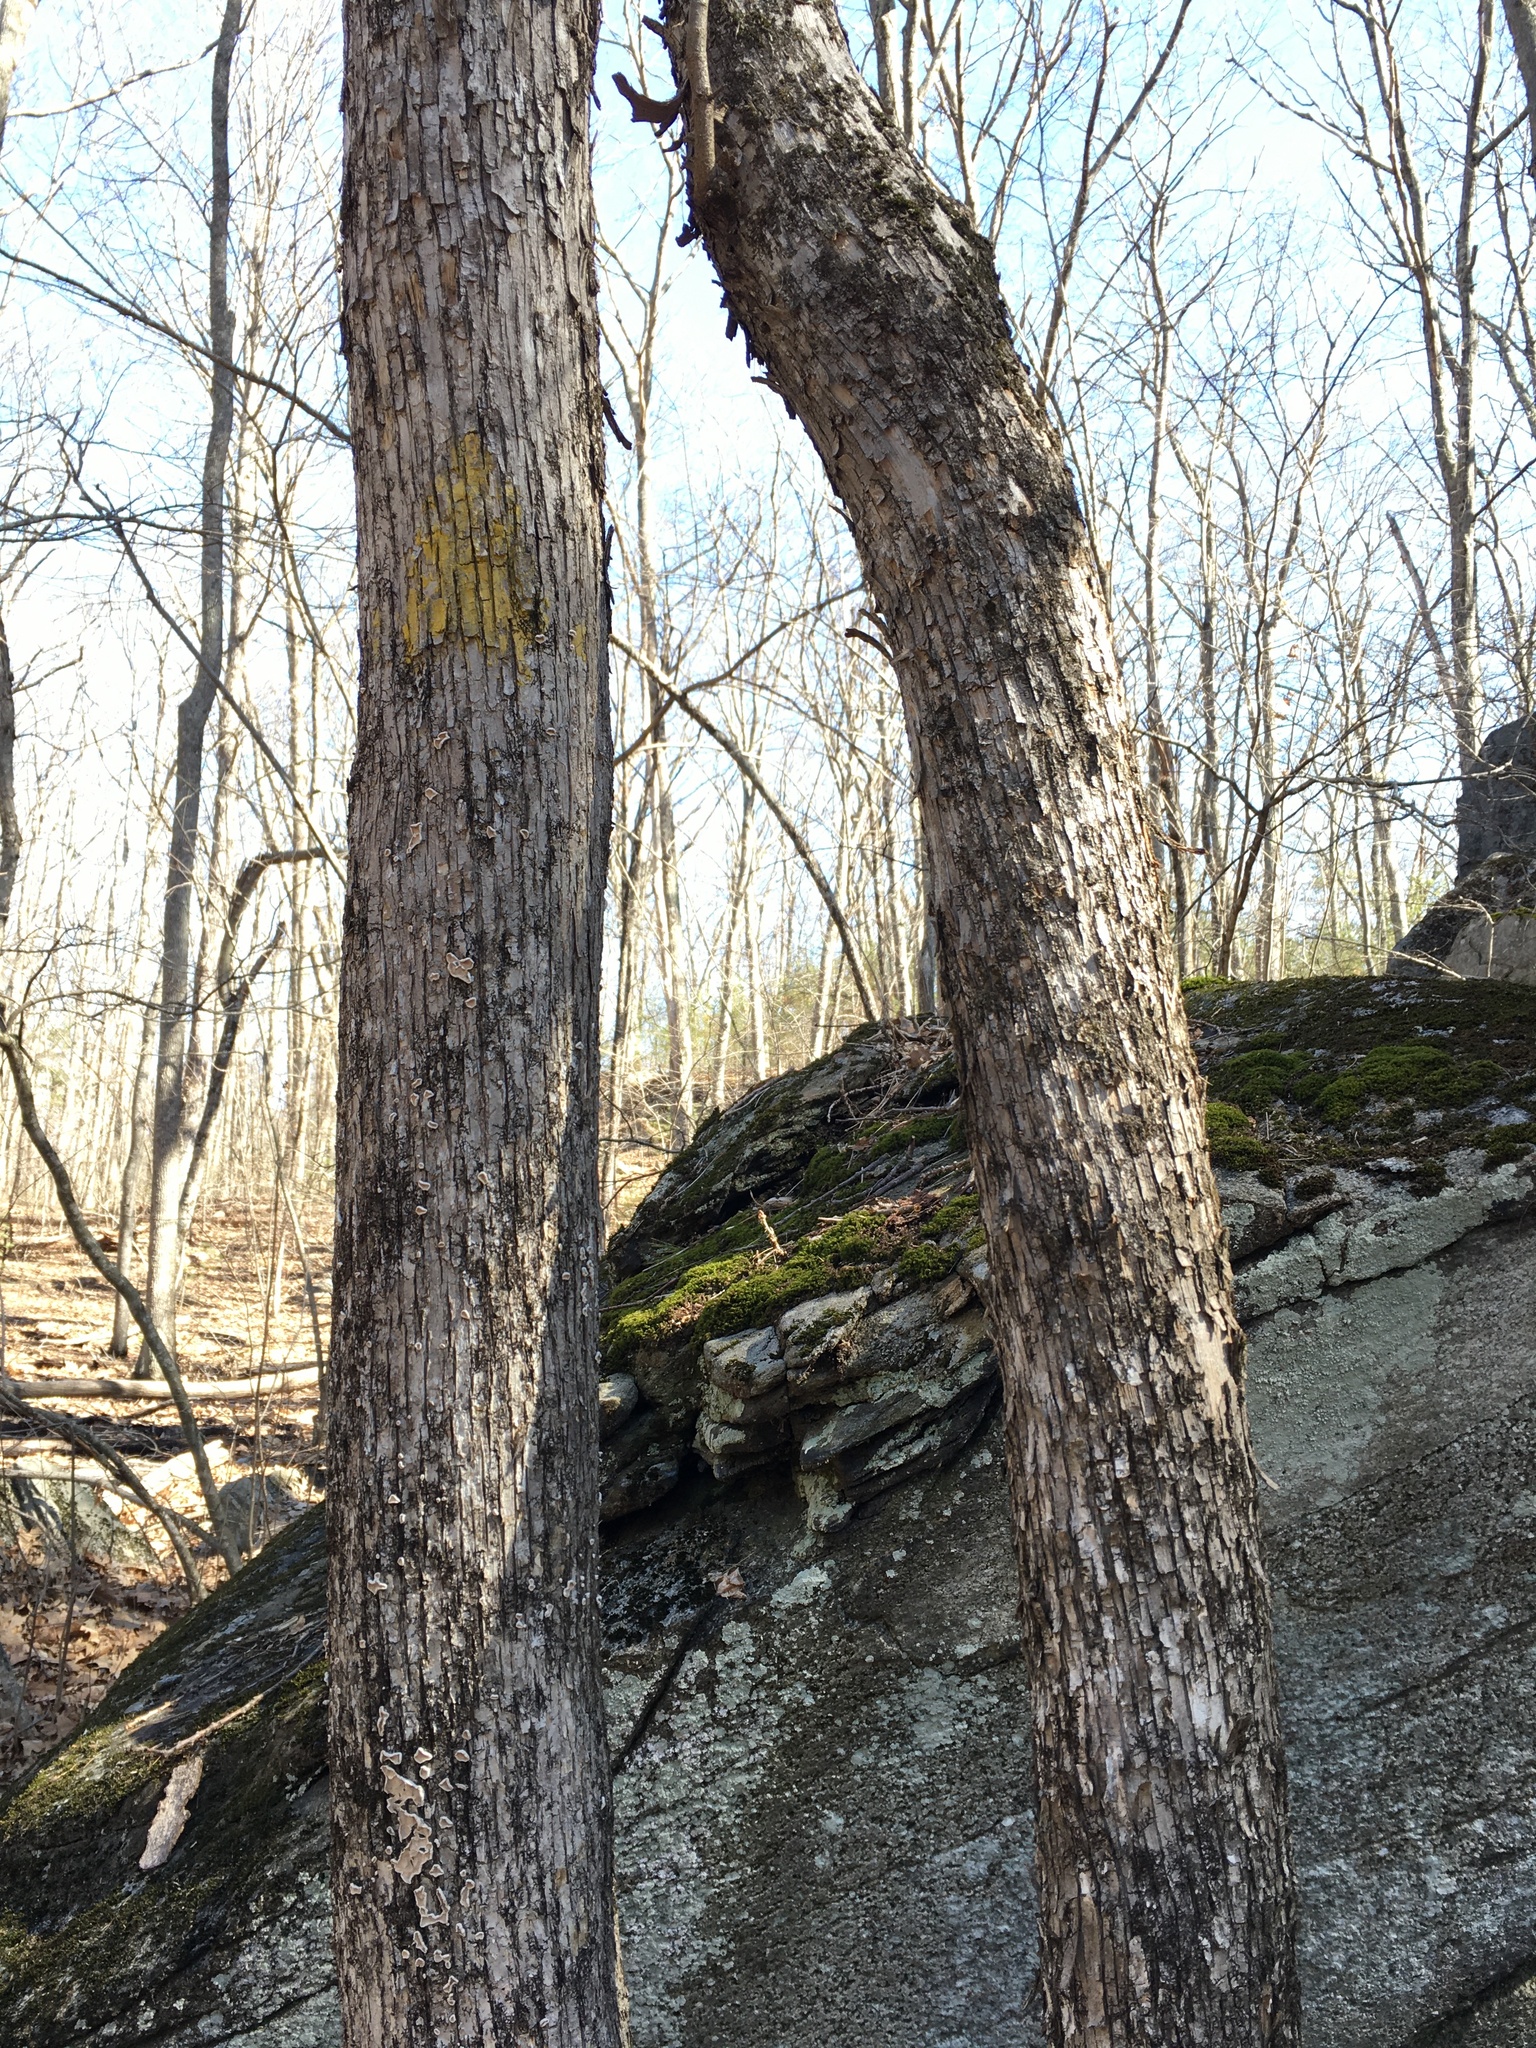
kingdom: Plantae
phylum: Tracheophyta
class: Magnoliopsida
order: Fagales
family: Betulaceae
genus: Ostrya
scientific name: Ostrya virginiana
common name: Ironwood
